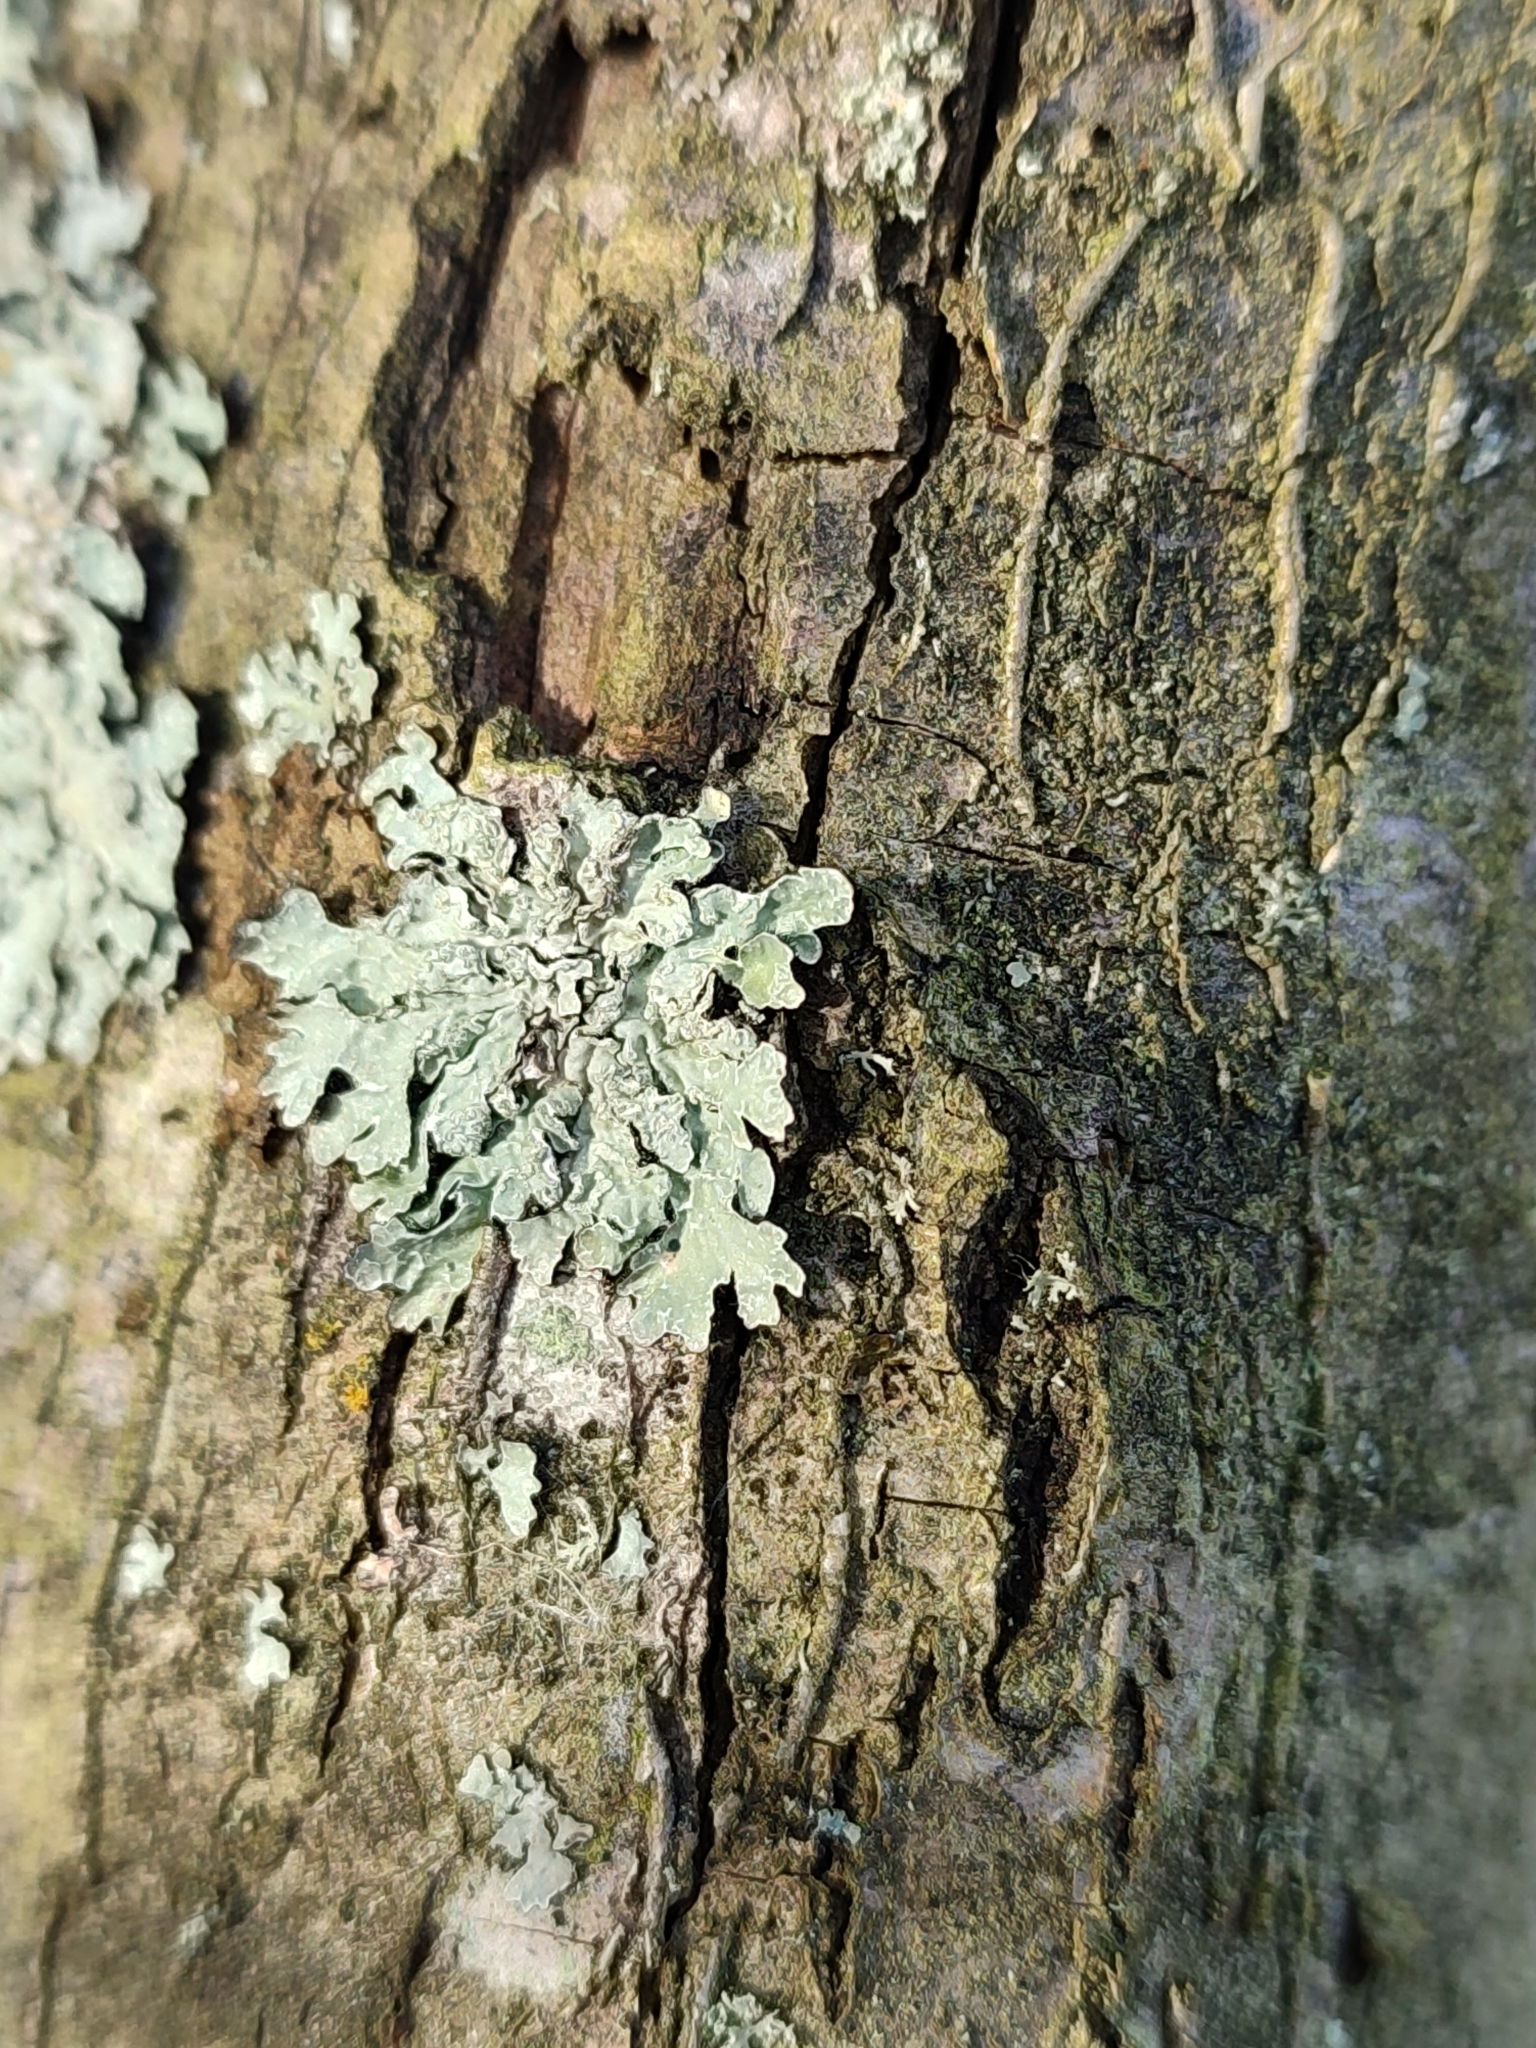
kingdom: Fungi
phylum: Ascomycota
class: Lecanoromycetes
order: Lecanorales
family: Parmeliaceae
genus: Parmelia
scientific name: Parmelia sulcata
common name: Netted shield lichen
